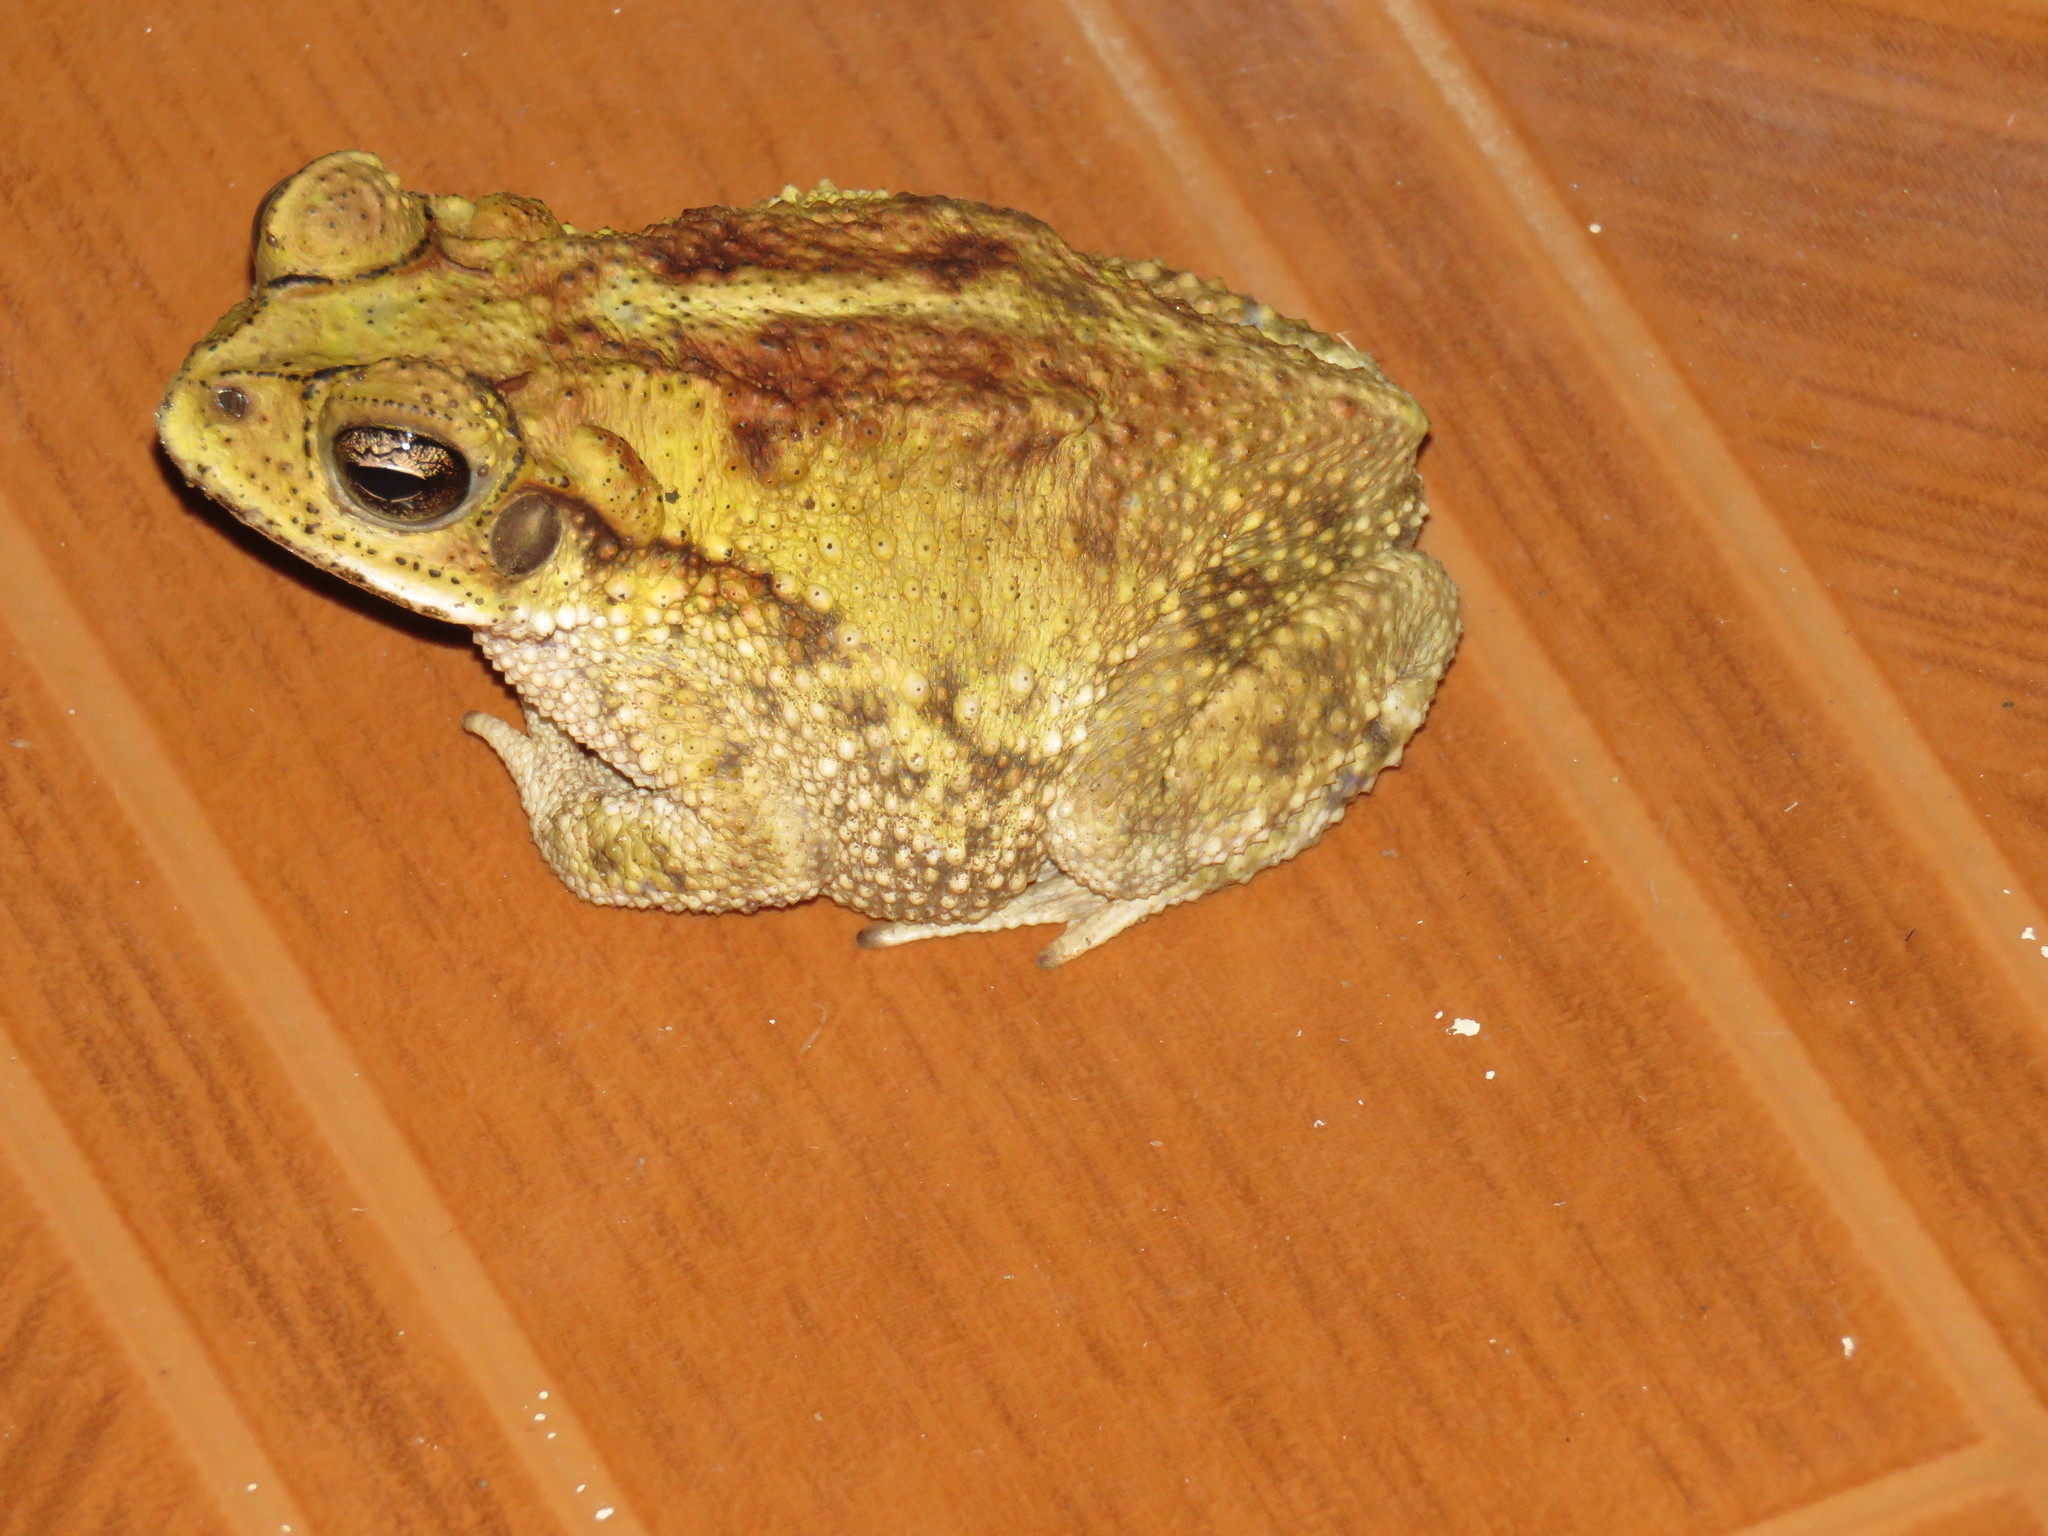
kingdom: Animalia
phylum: Chordata
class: Amphibia
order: Anura
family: Bufonidae
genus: Incilius
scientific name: Incilius luetkenii
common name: Yellow toad
